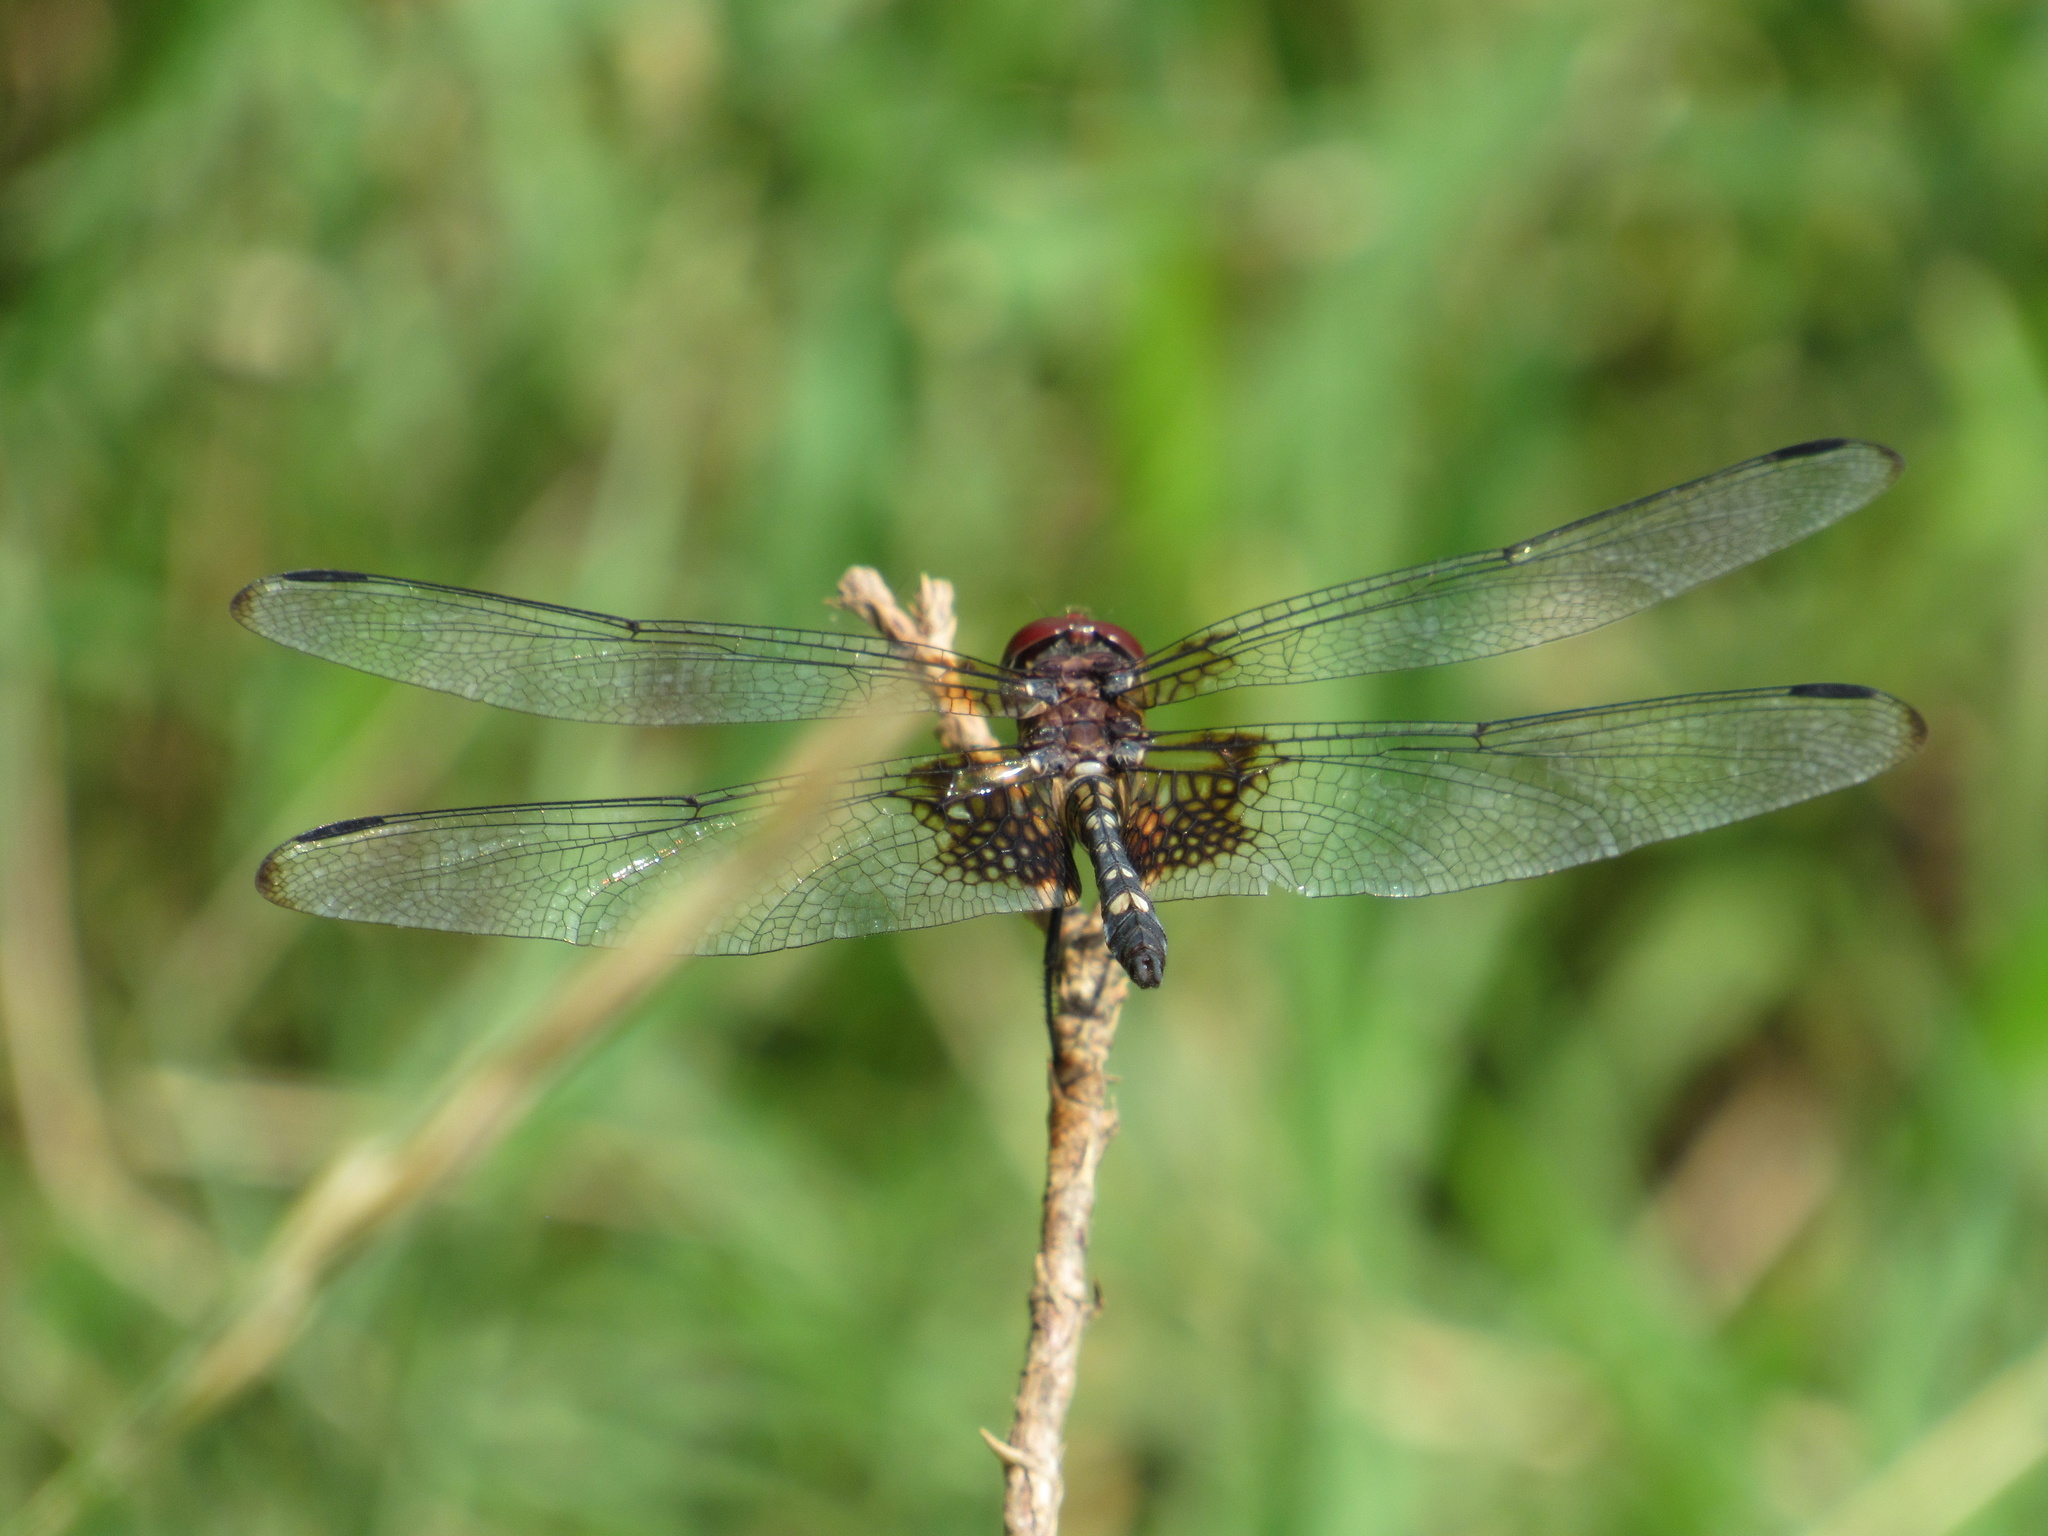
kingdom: Animalia
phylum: Arthropoda
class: Insecta
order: Odonata
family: Libellulidae
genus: Dythemis
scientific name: Dythemis fugax
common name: Checkered setwing
